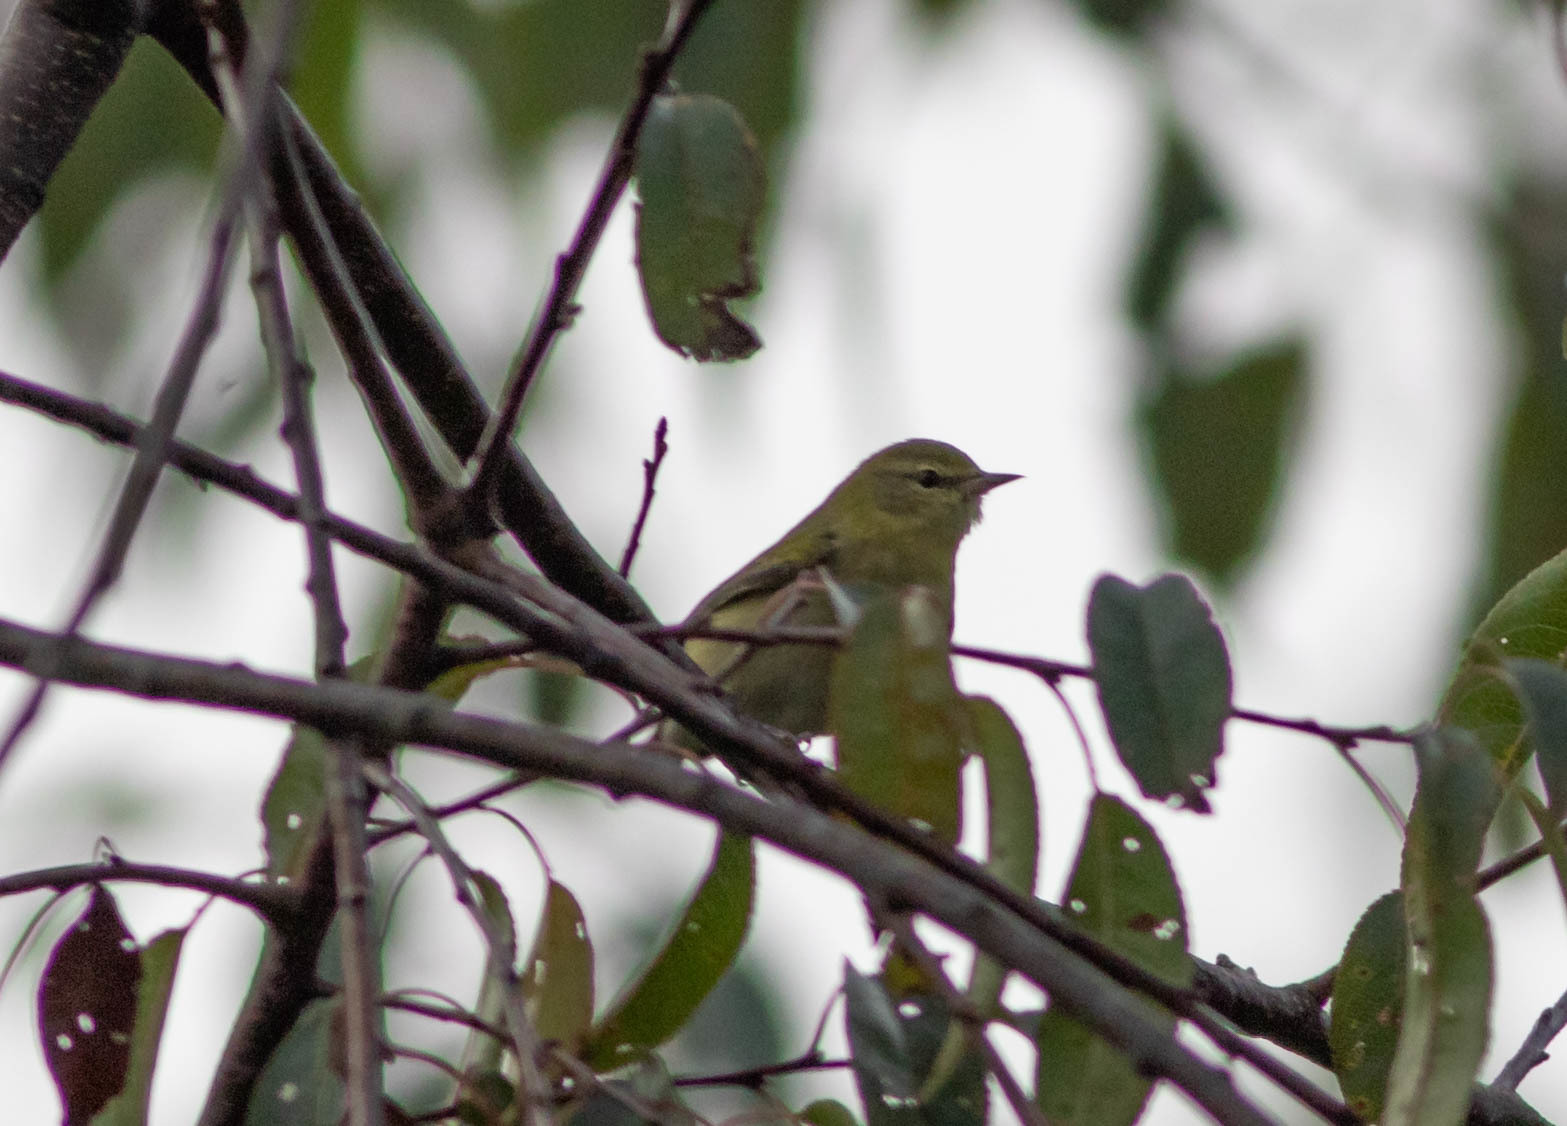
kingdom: Animalia
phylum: Chordata
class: Aves
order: Passeriformes
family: Parulidae
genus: Leiothlypis
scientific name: Leiothlypis peregrina
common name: Tennessee warbler
